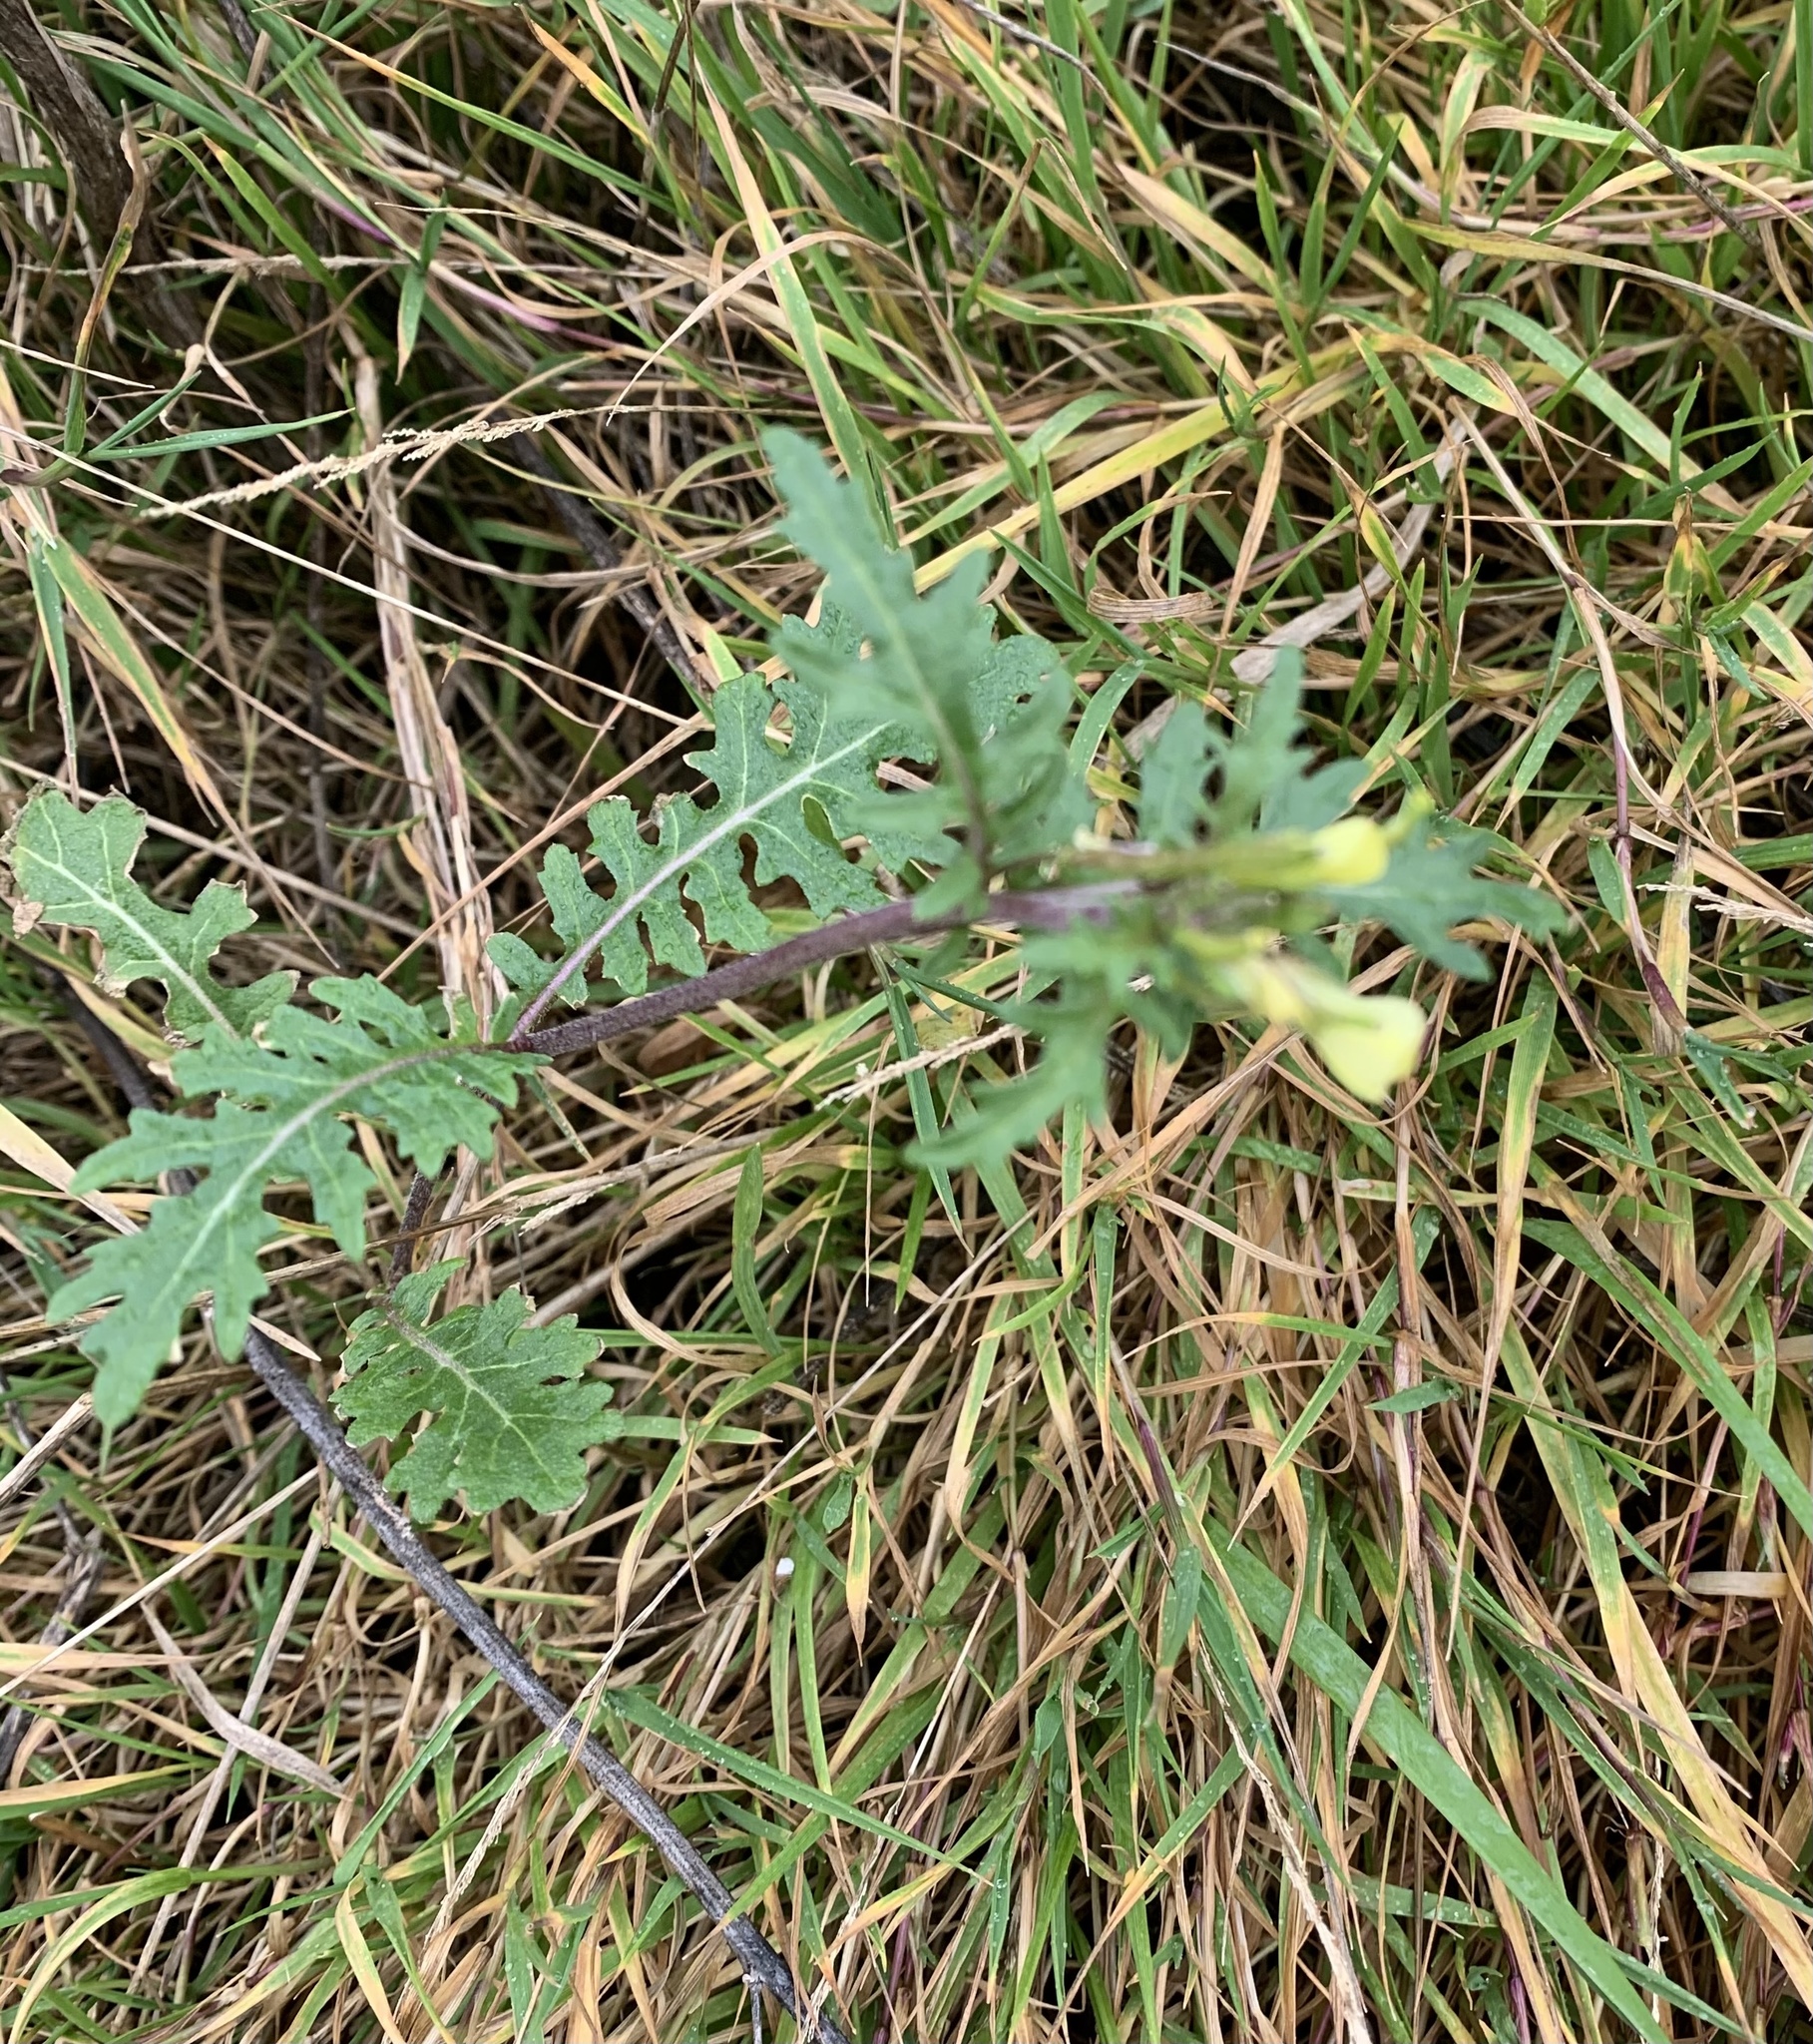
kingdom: Plantae
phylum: Tracheophyta
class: Magnoliopsida
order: Brassicales
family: Brassicaceae
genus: Erucastrum
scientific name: Erucastrum gallicum
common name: Hairy rocket
